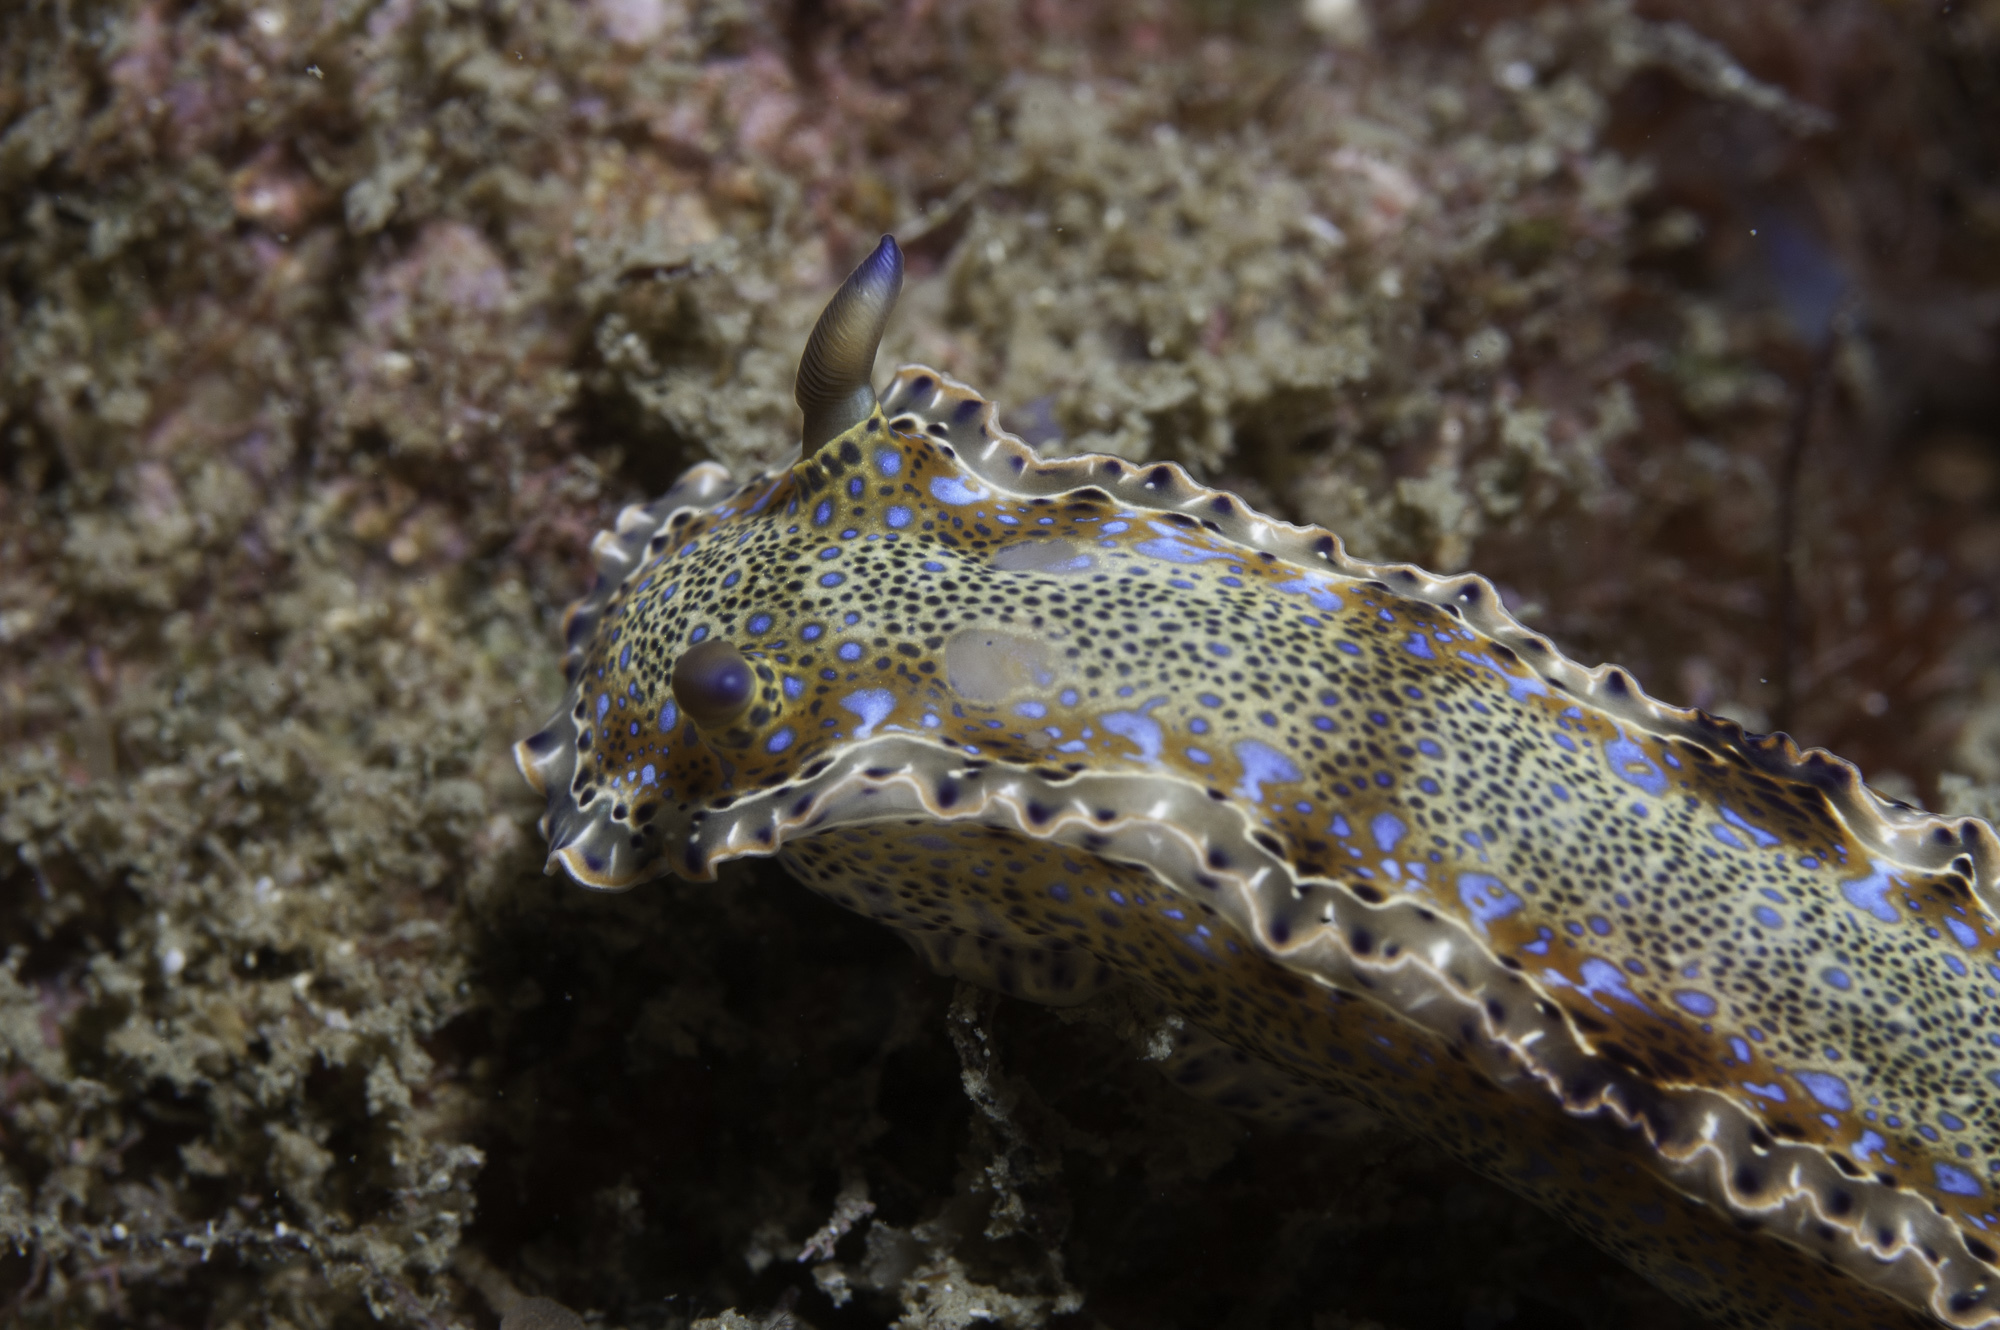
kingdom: Animalia
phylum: Mollusca
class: Gastropoda
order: Nudibranchia
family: Chromodorididae
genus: Felimare
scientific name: Felimare marci
